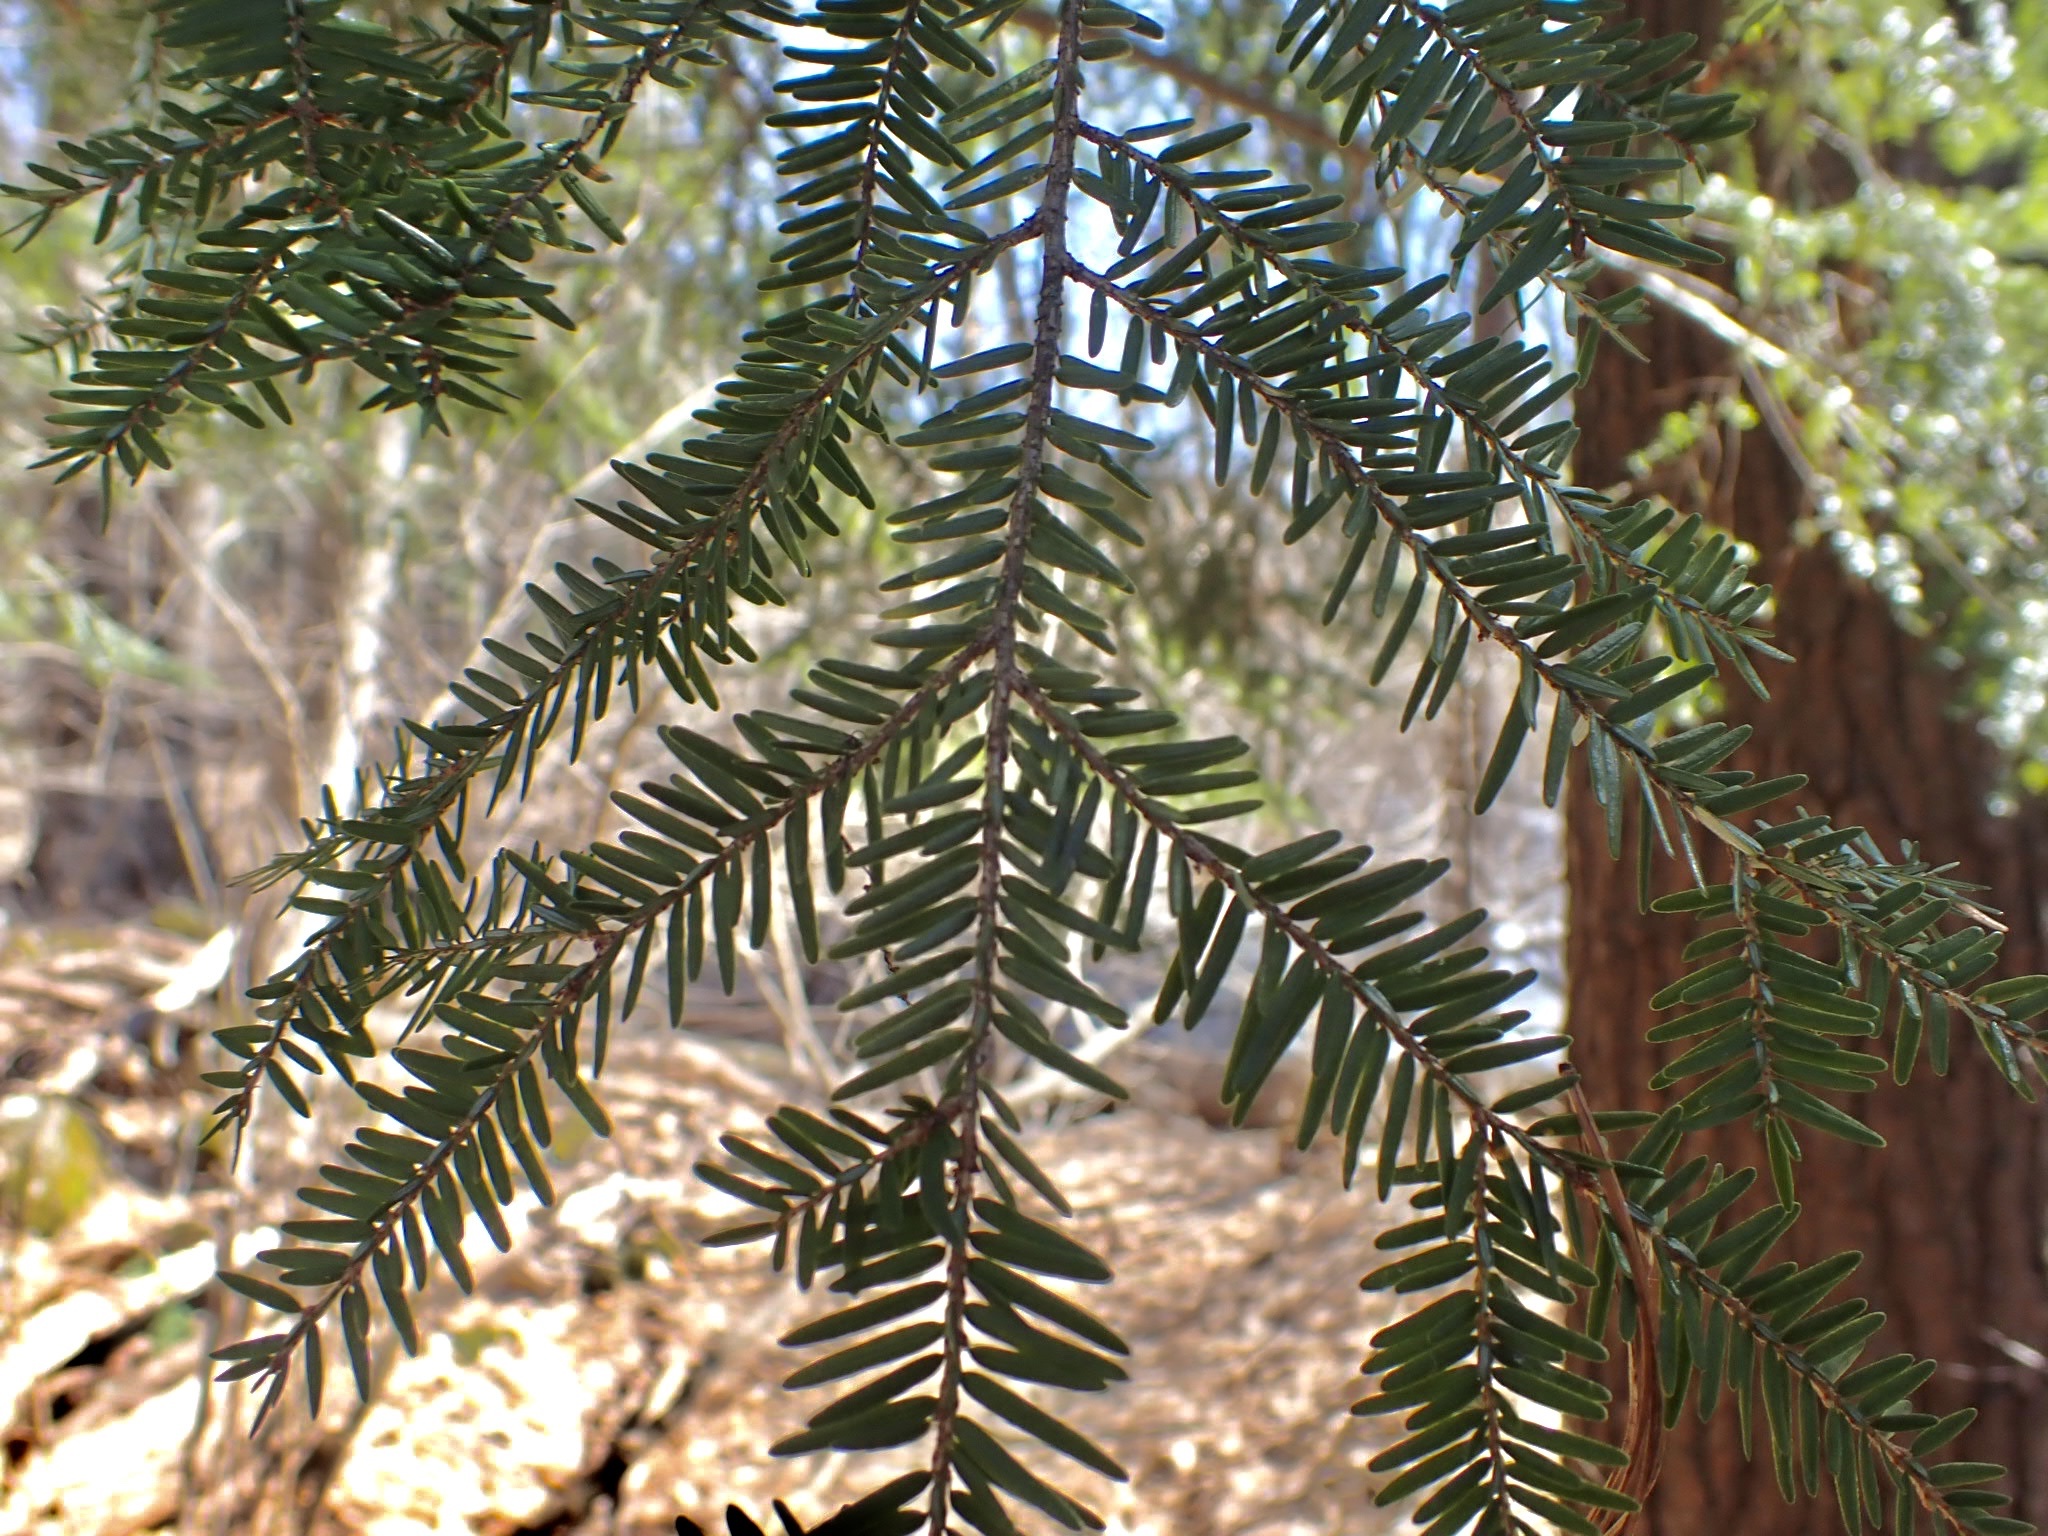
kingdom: Plantae
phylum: Tracheophyta
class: Pinopsida
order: Pinales
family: Pinaceae
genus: Tsuga
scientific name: Tsuga canadensis
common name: Eastern hemlock
